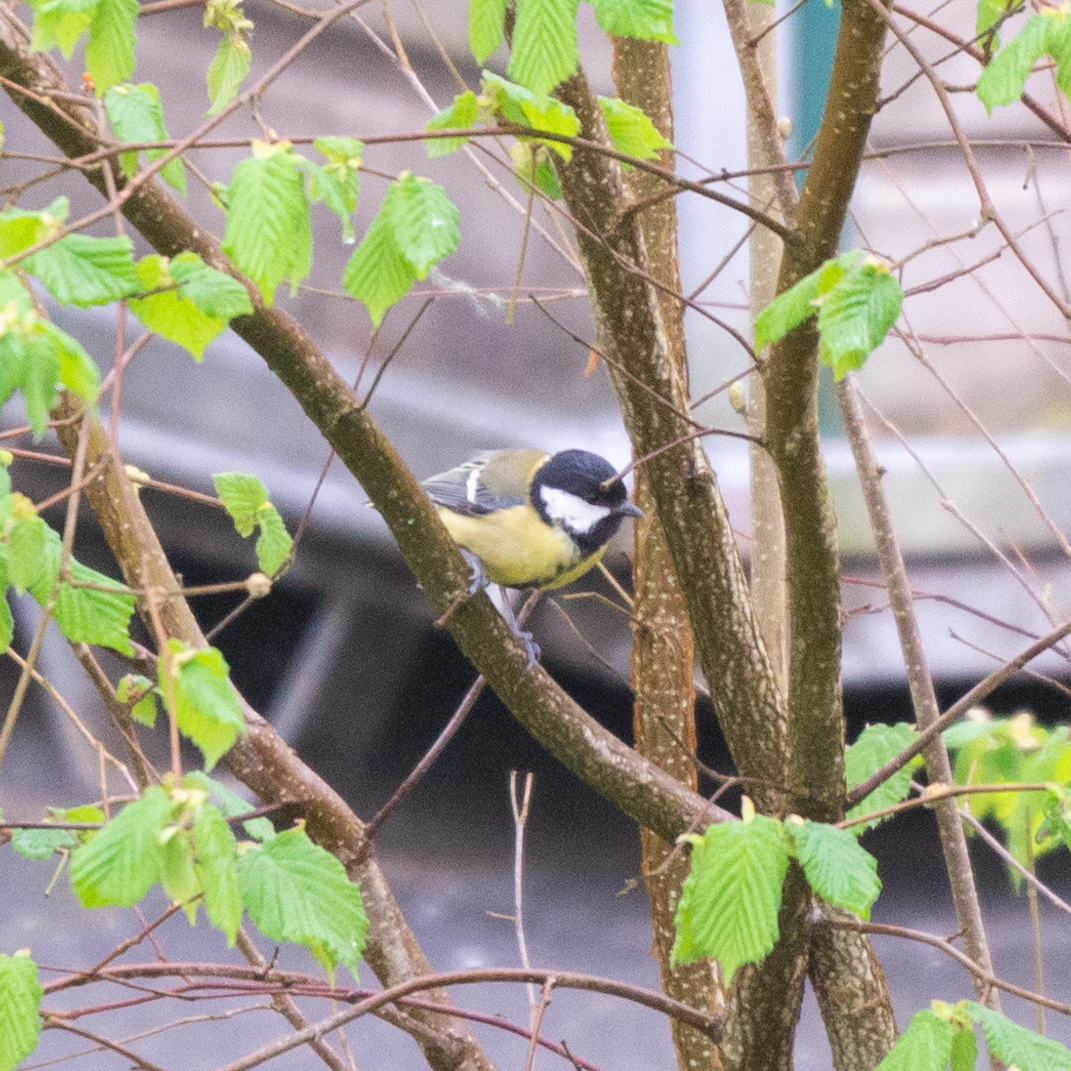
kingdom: Animalia
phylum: Chordata
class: Aves
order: Passeriformes
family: Paridae
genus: Parus
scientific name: Parus major
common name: Great tit
